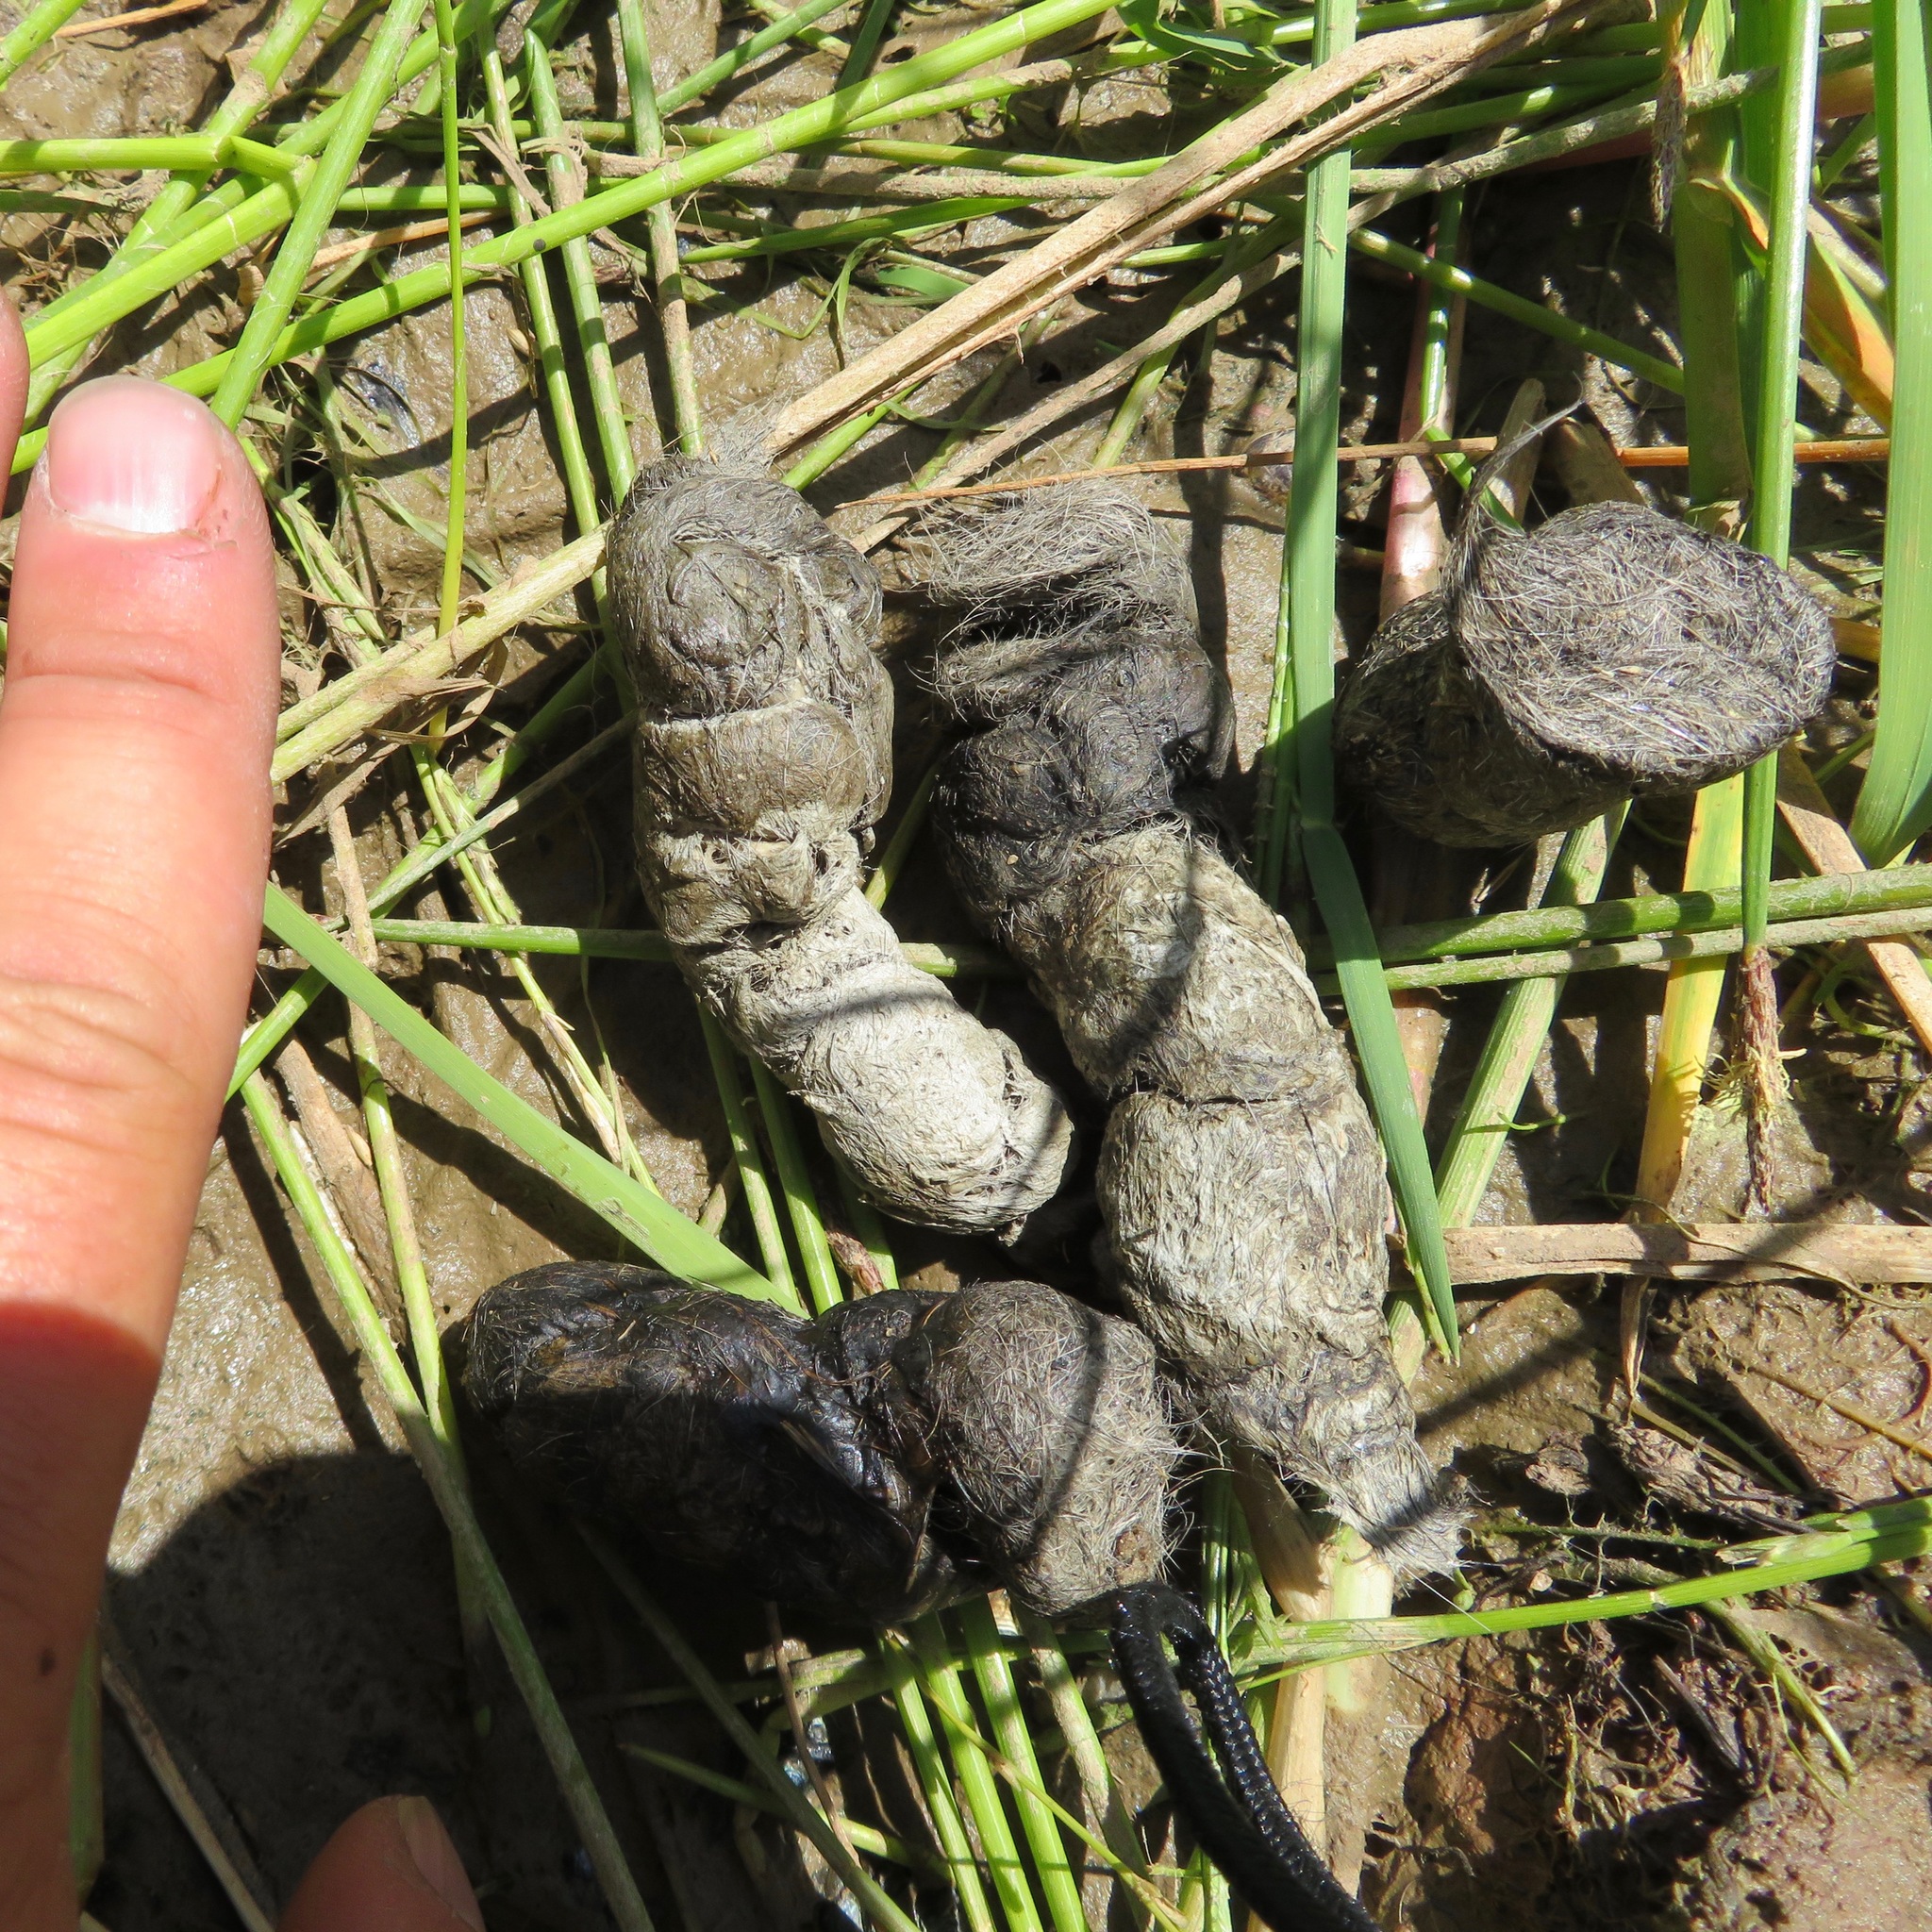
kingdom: Animalia
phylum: Chordata
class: Mammalia
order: Carnivora
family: Felidae
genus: Lynx
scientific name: Lynx rufus
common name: Bobcat
